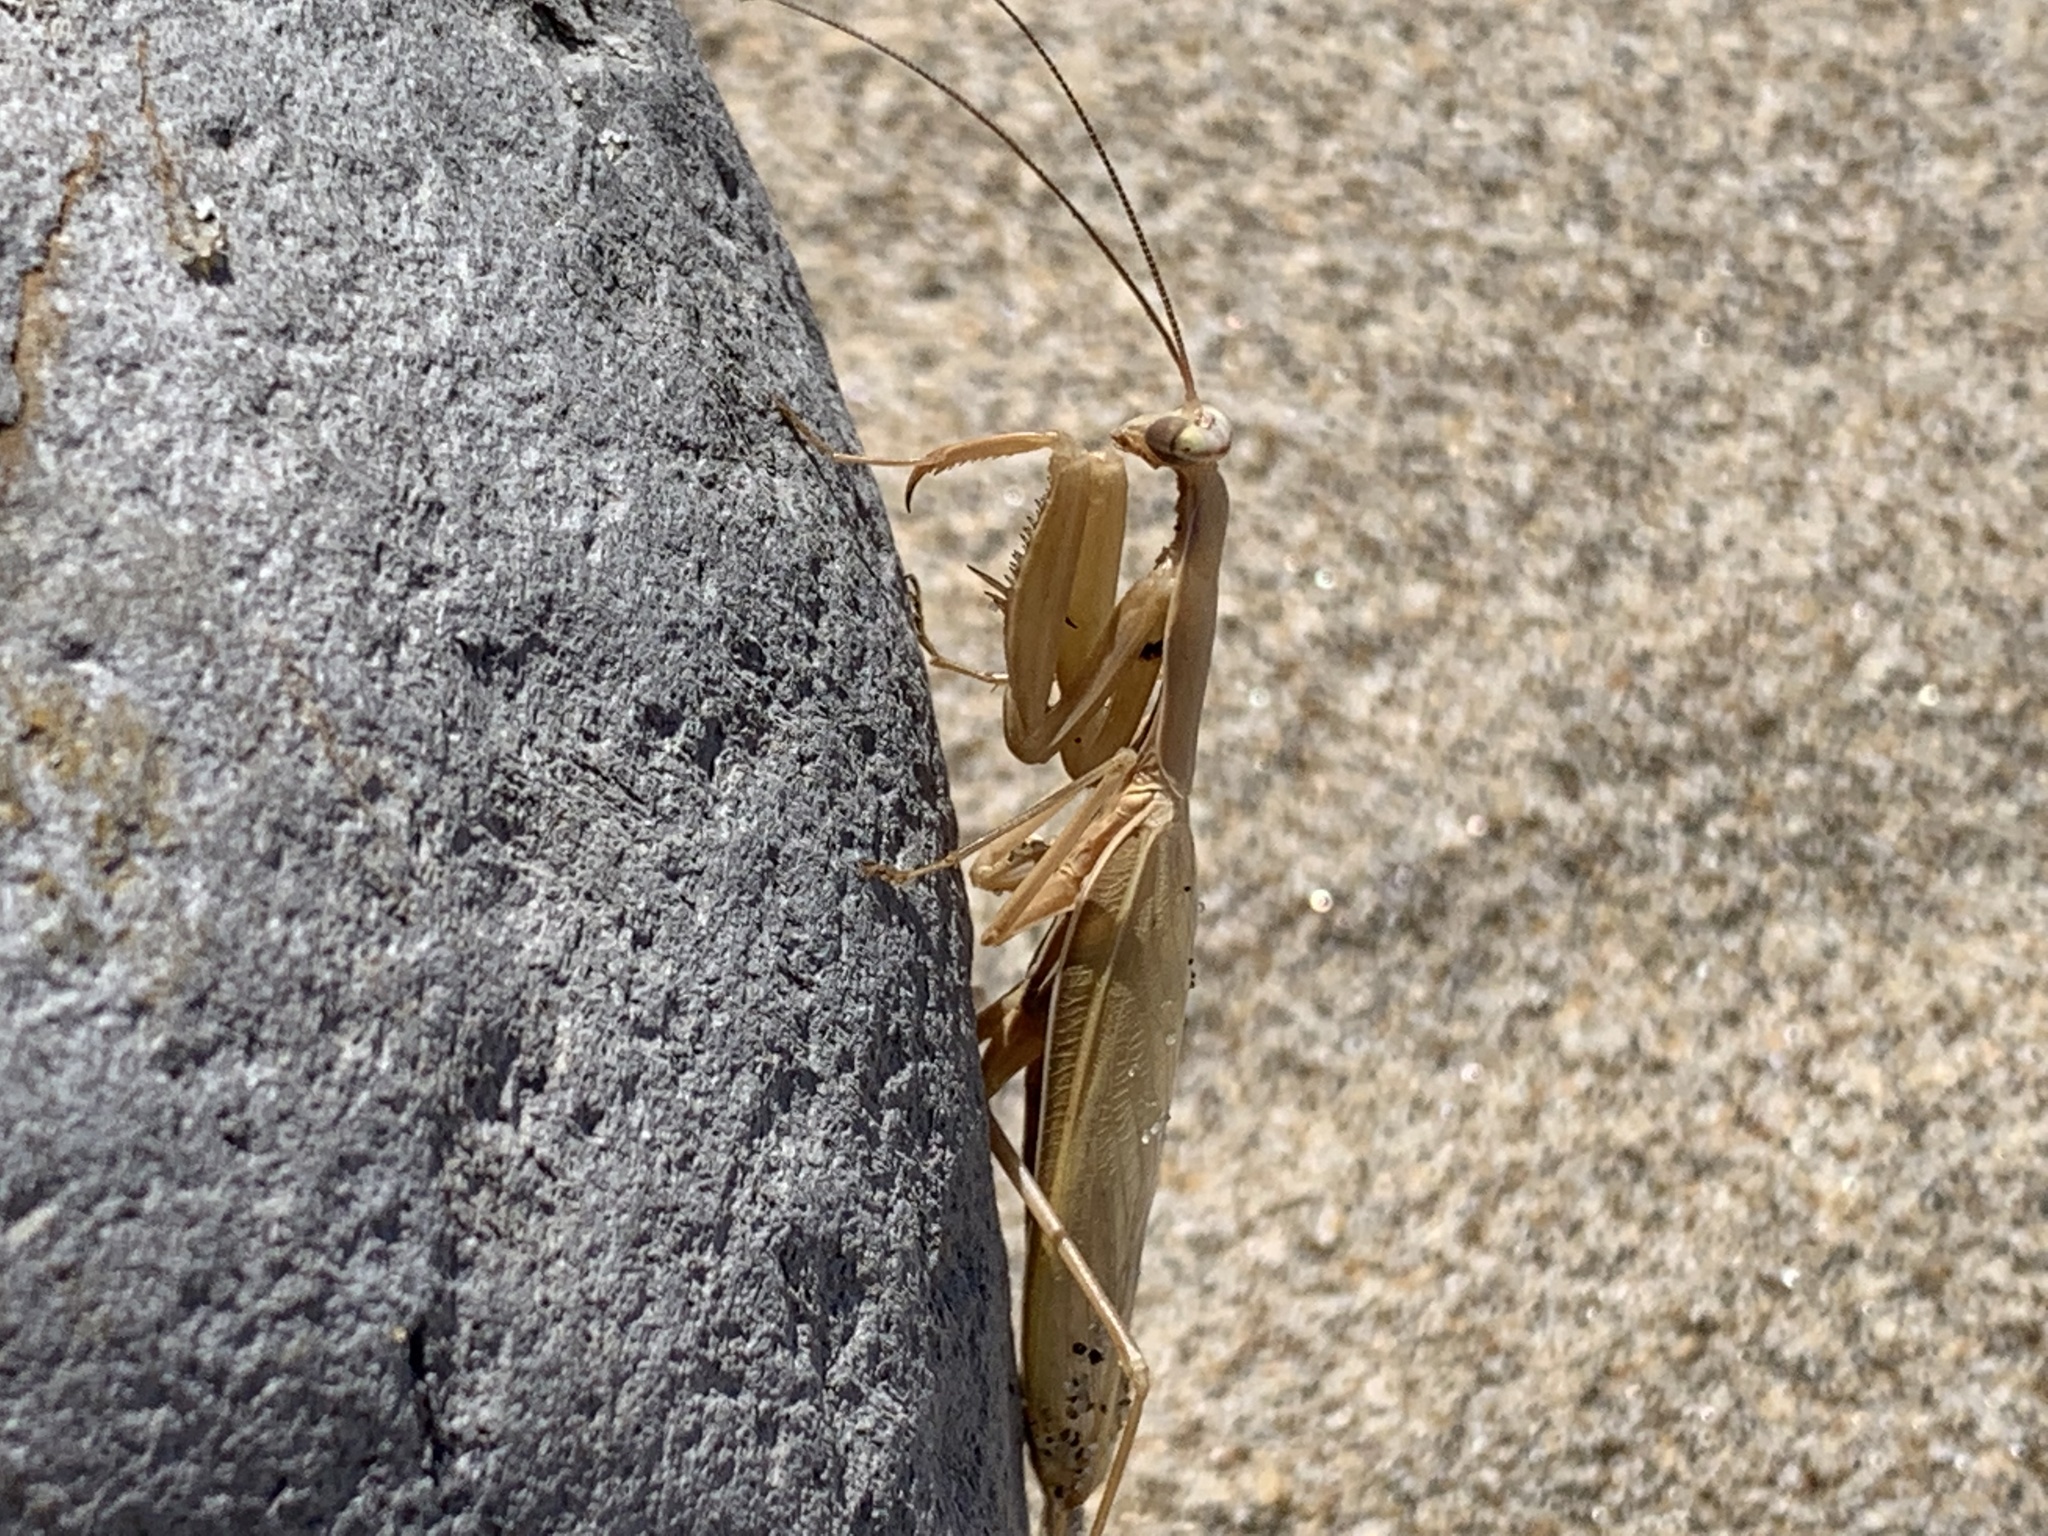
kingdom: Animalia
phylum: Arthropoda
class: Insecta
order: Mantodea
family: Mantidae
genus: Mantis
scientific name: Mantis religiosa
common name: Praying mantis
